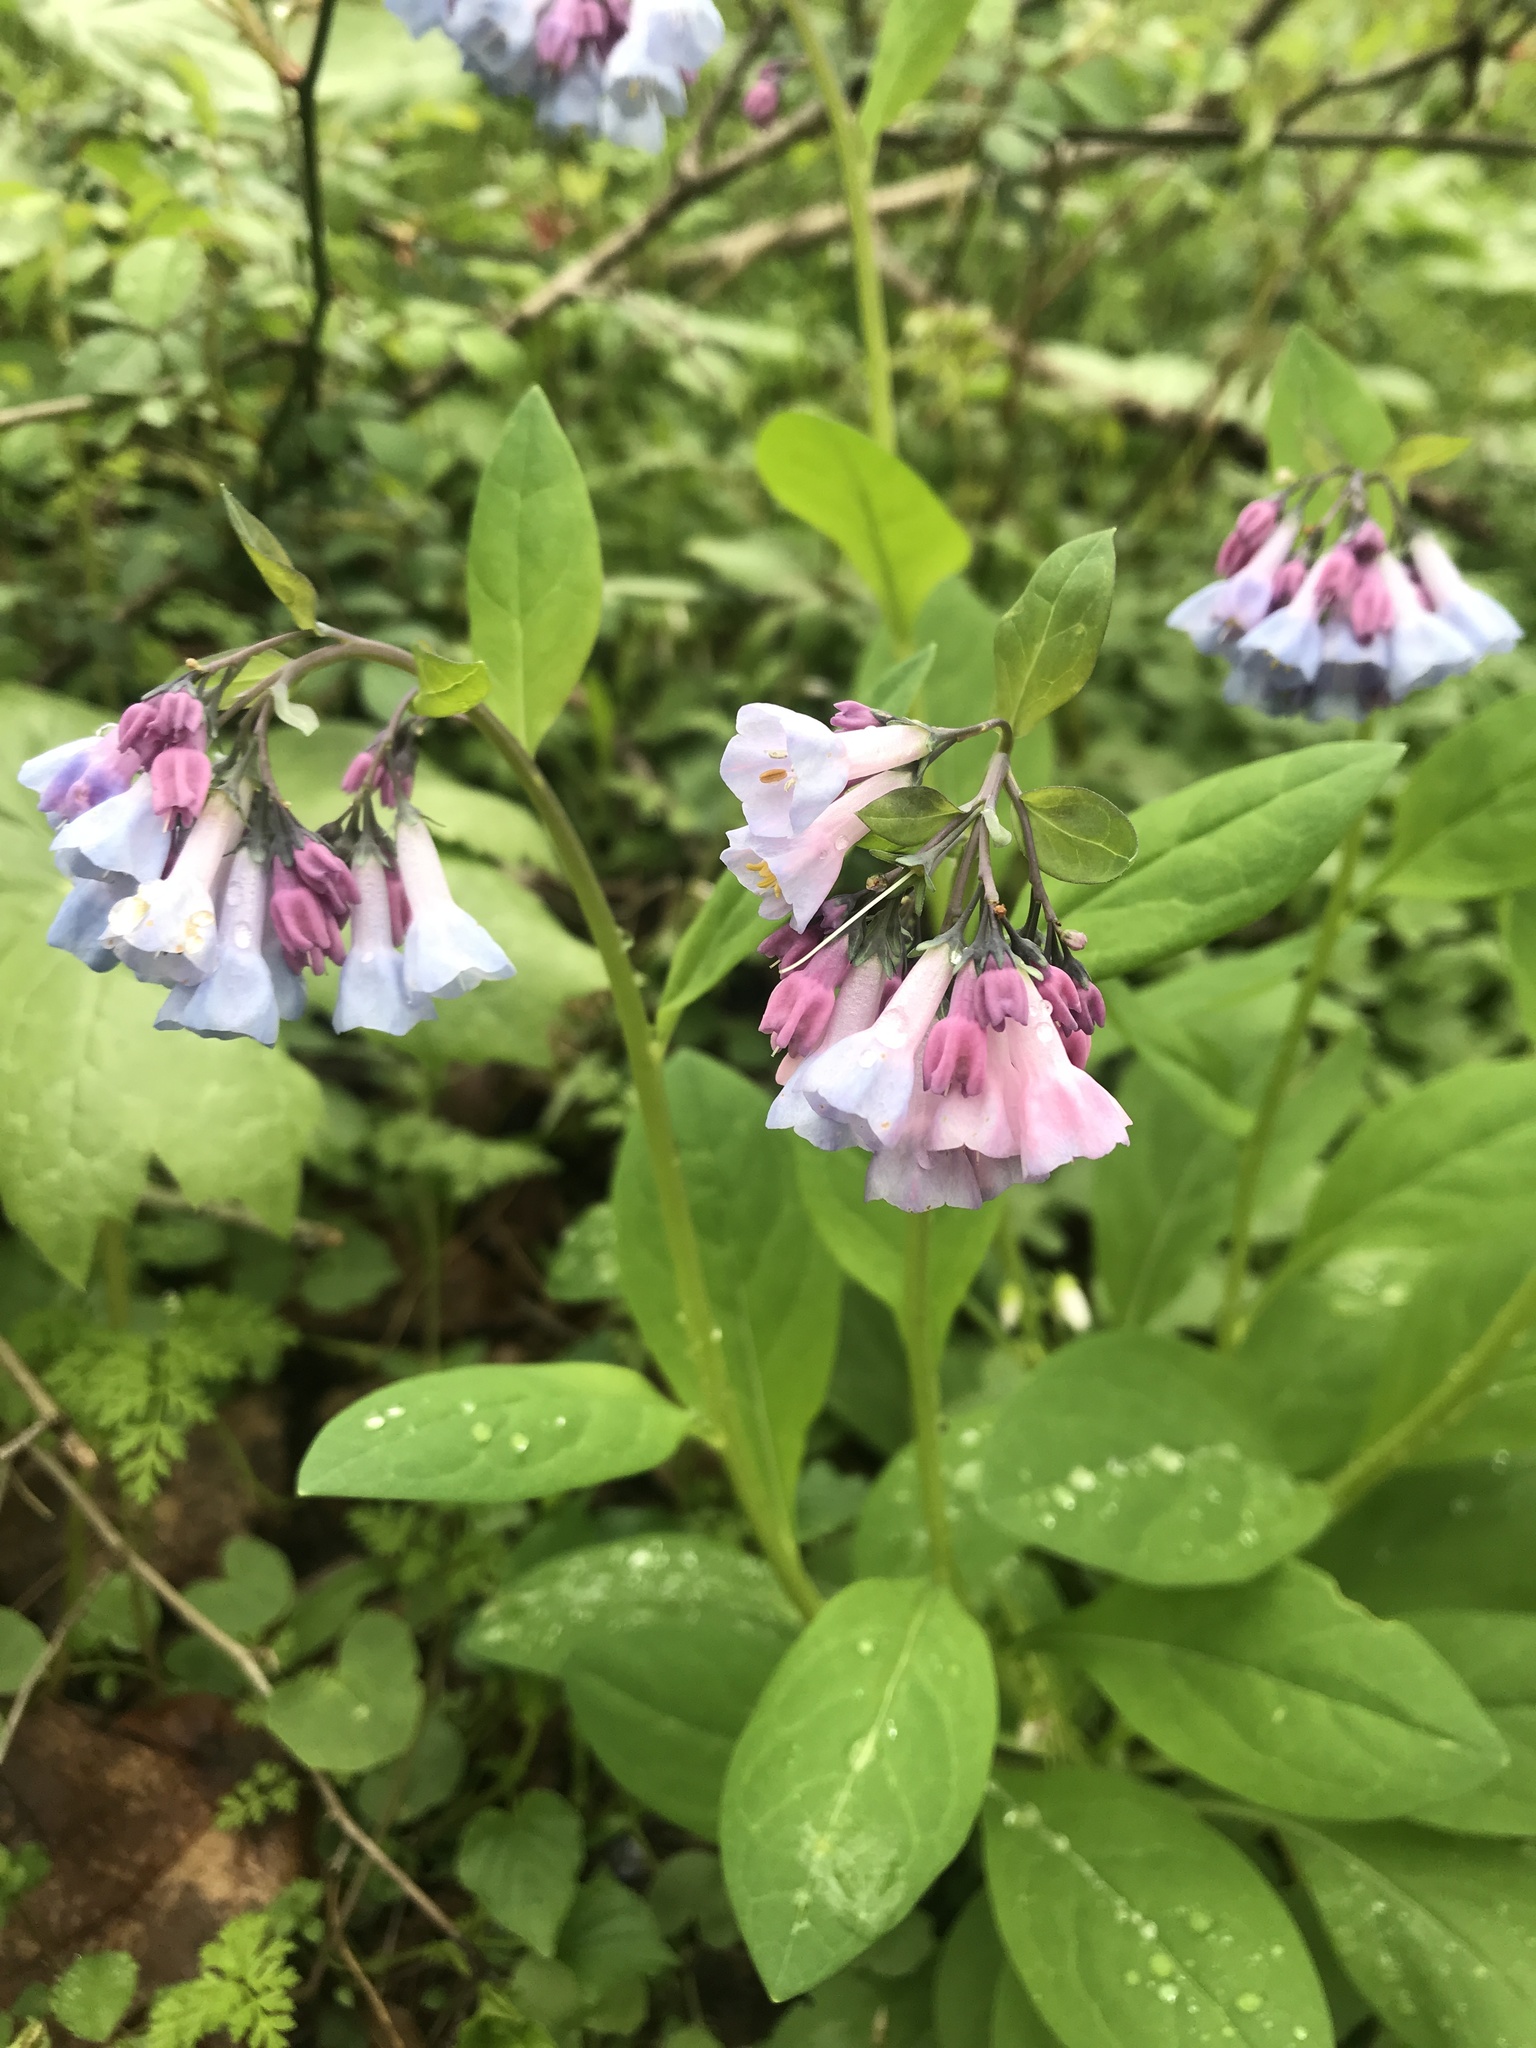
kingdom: Plantae
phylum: Tracheophyta
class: Magnoliopsida
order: Boraginales
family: Boraginaceae
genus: Mertensia
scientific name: Mertensia virginica
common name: Virginia bluebells
